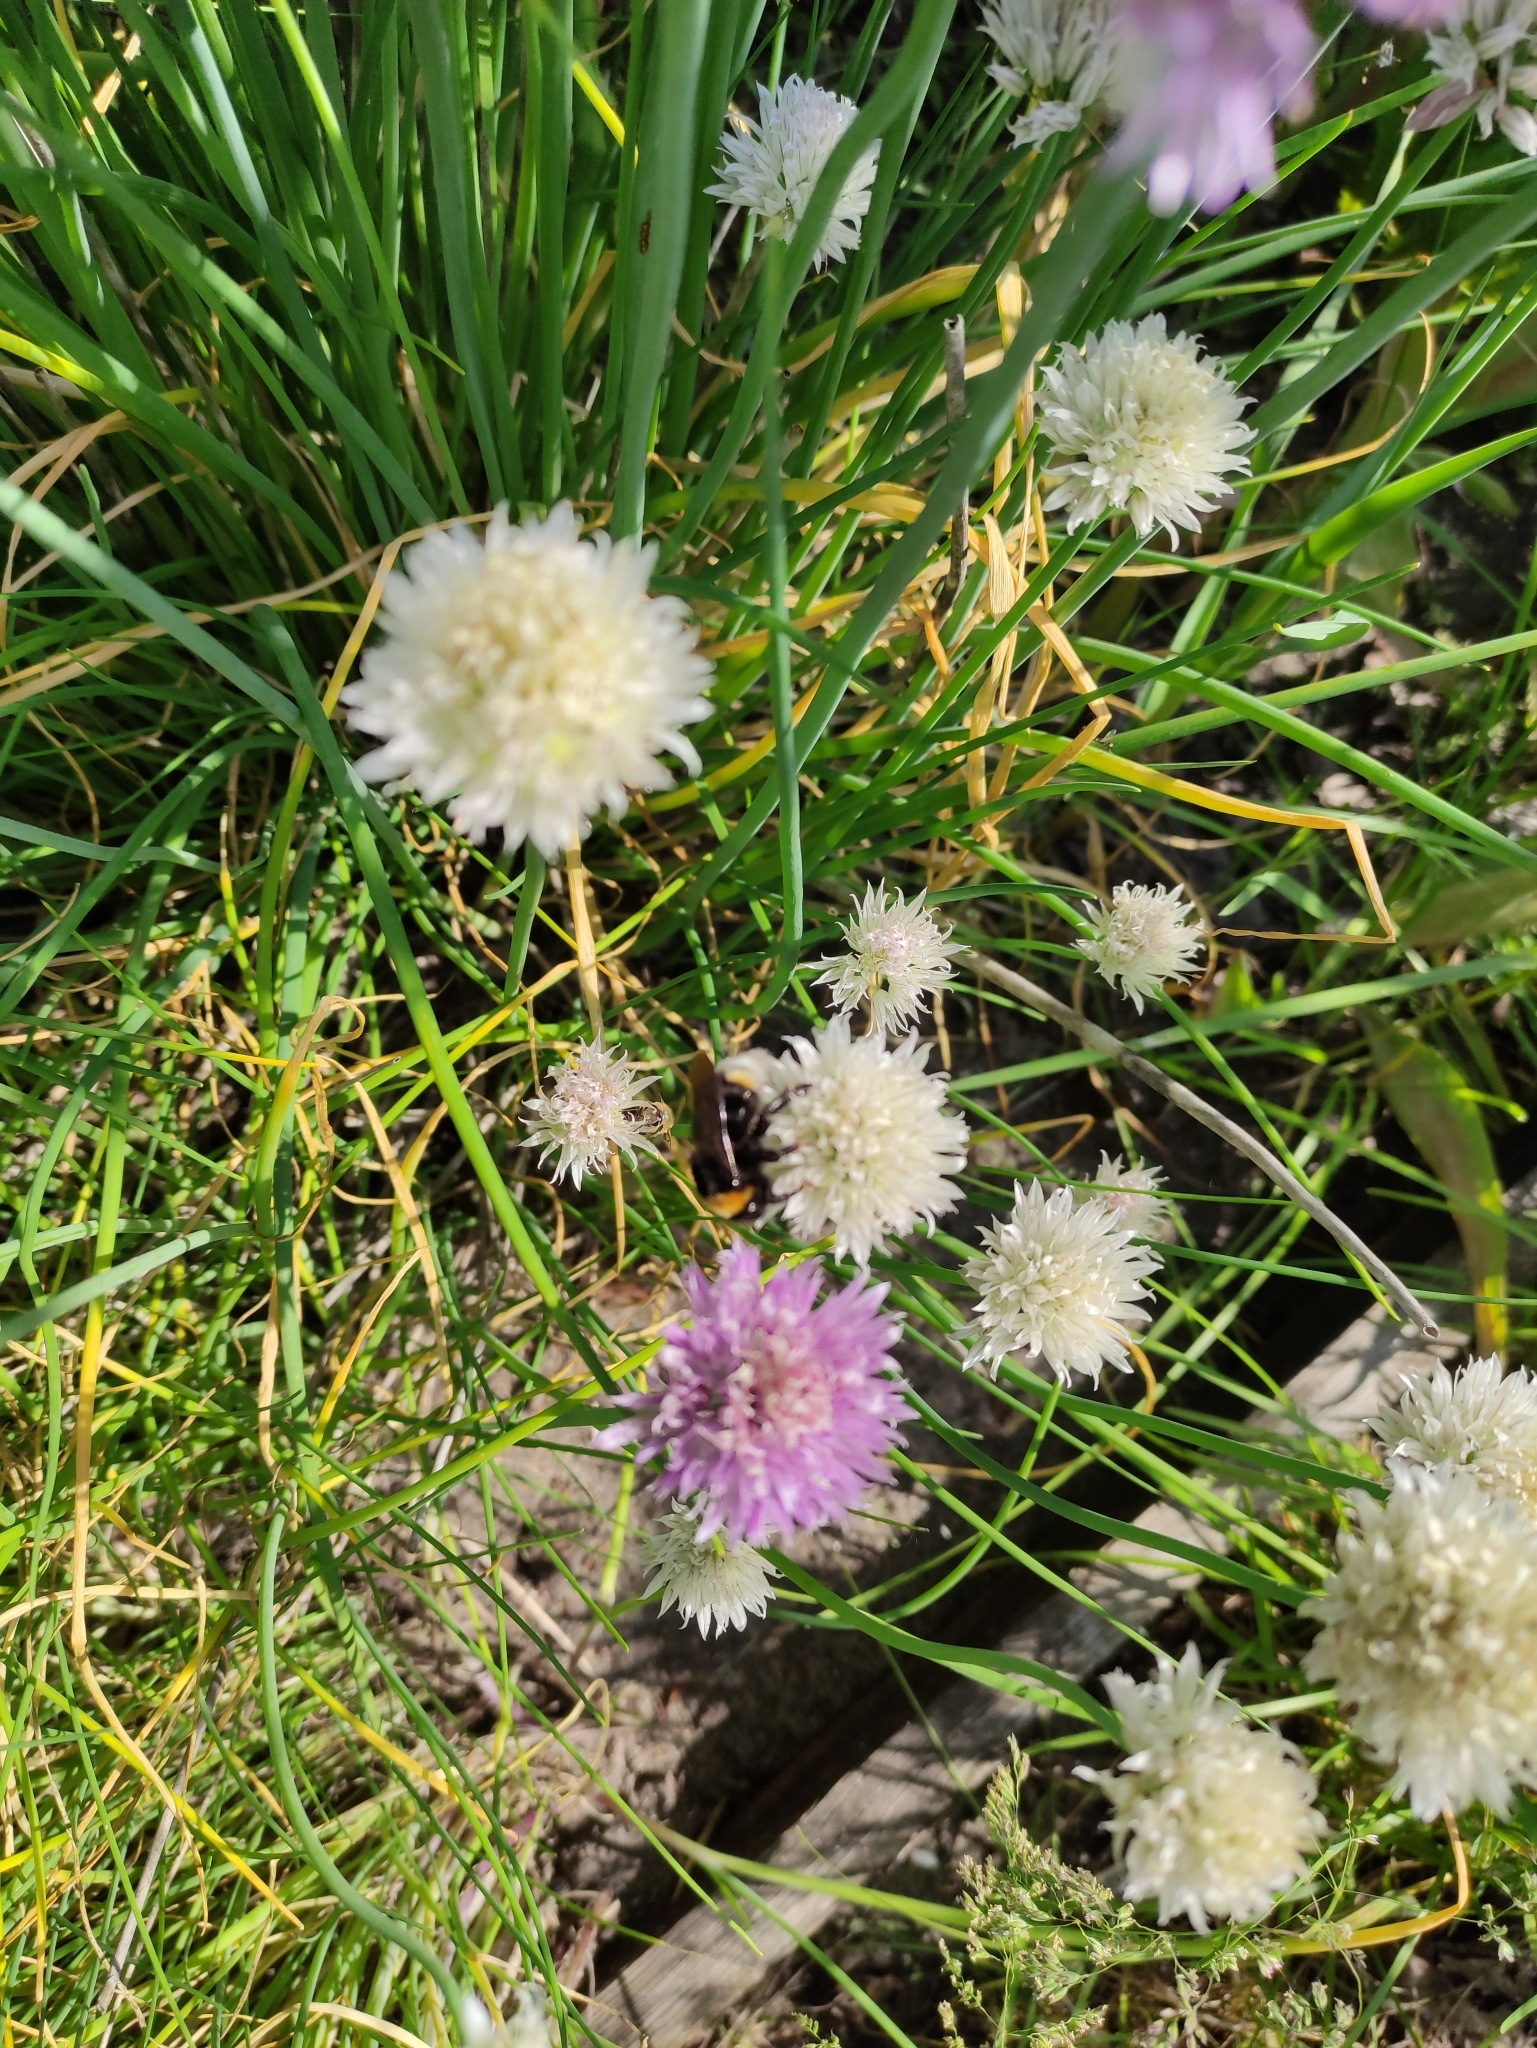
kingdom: Animalia
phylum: Arthropoda
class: Insecta
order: Hymenoptera
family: Apidae
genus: Bombus
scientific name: Bombus vestalis
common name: Vestal cuckoo bee
